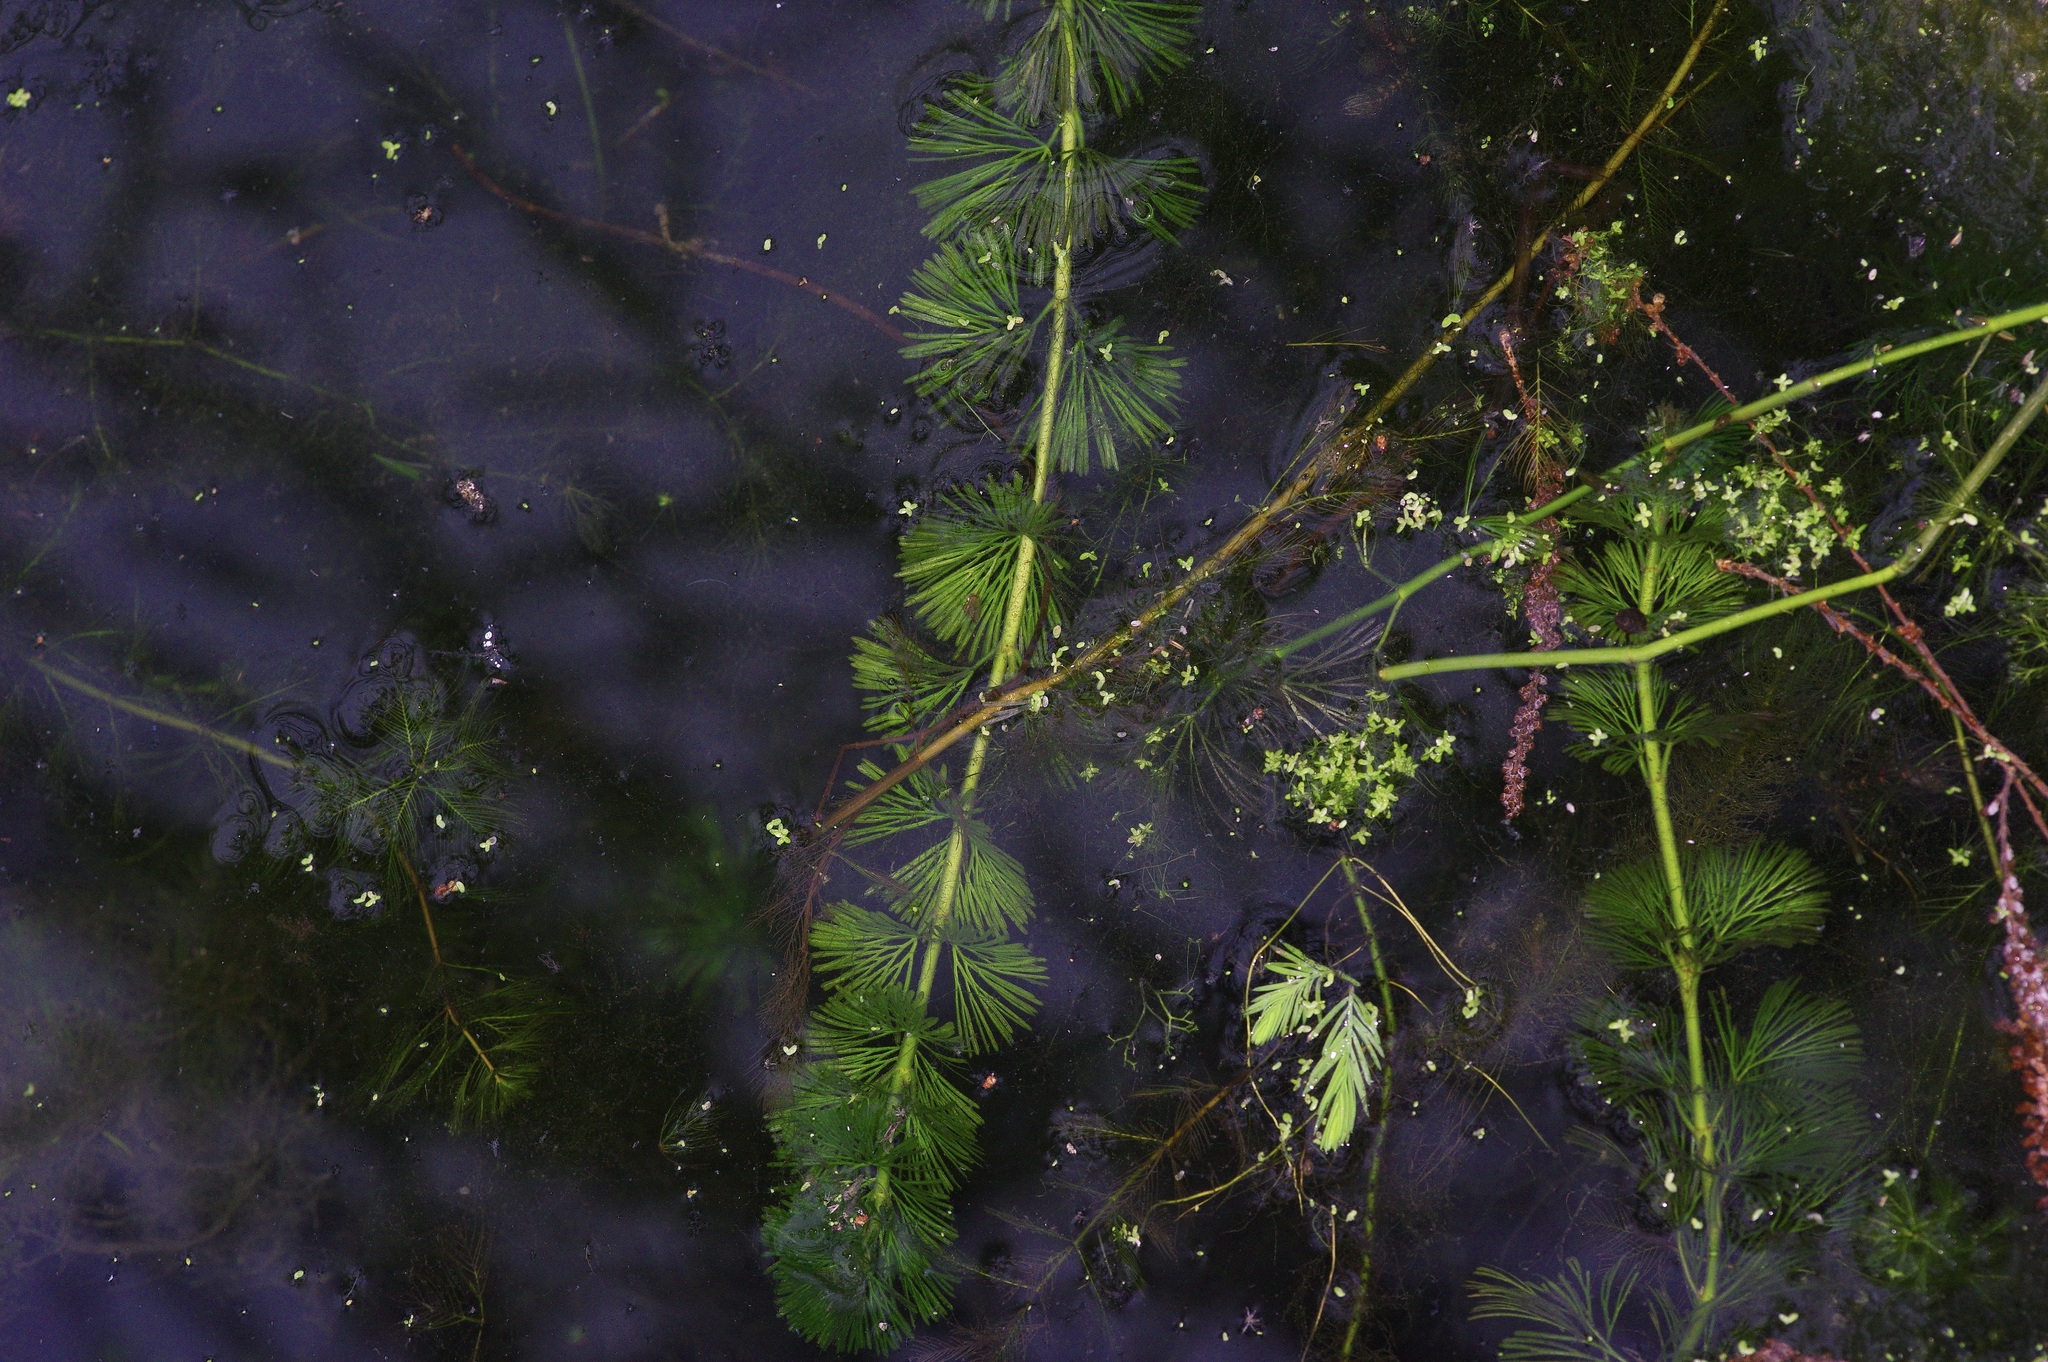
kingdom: Plantae
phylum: Tracheophyta
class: Magnoliopsida
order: Nymphaeales
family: Cabombaceae
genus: Cabomba
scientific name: Cabomba caroliniana
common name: Fanwort
